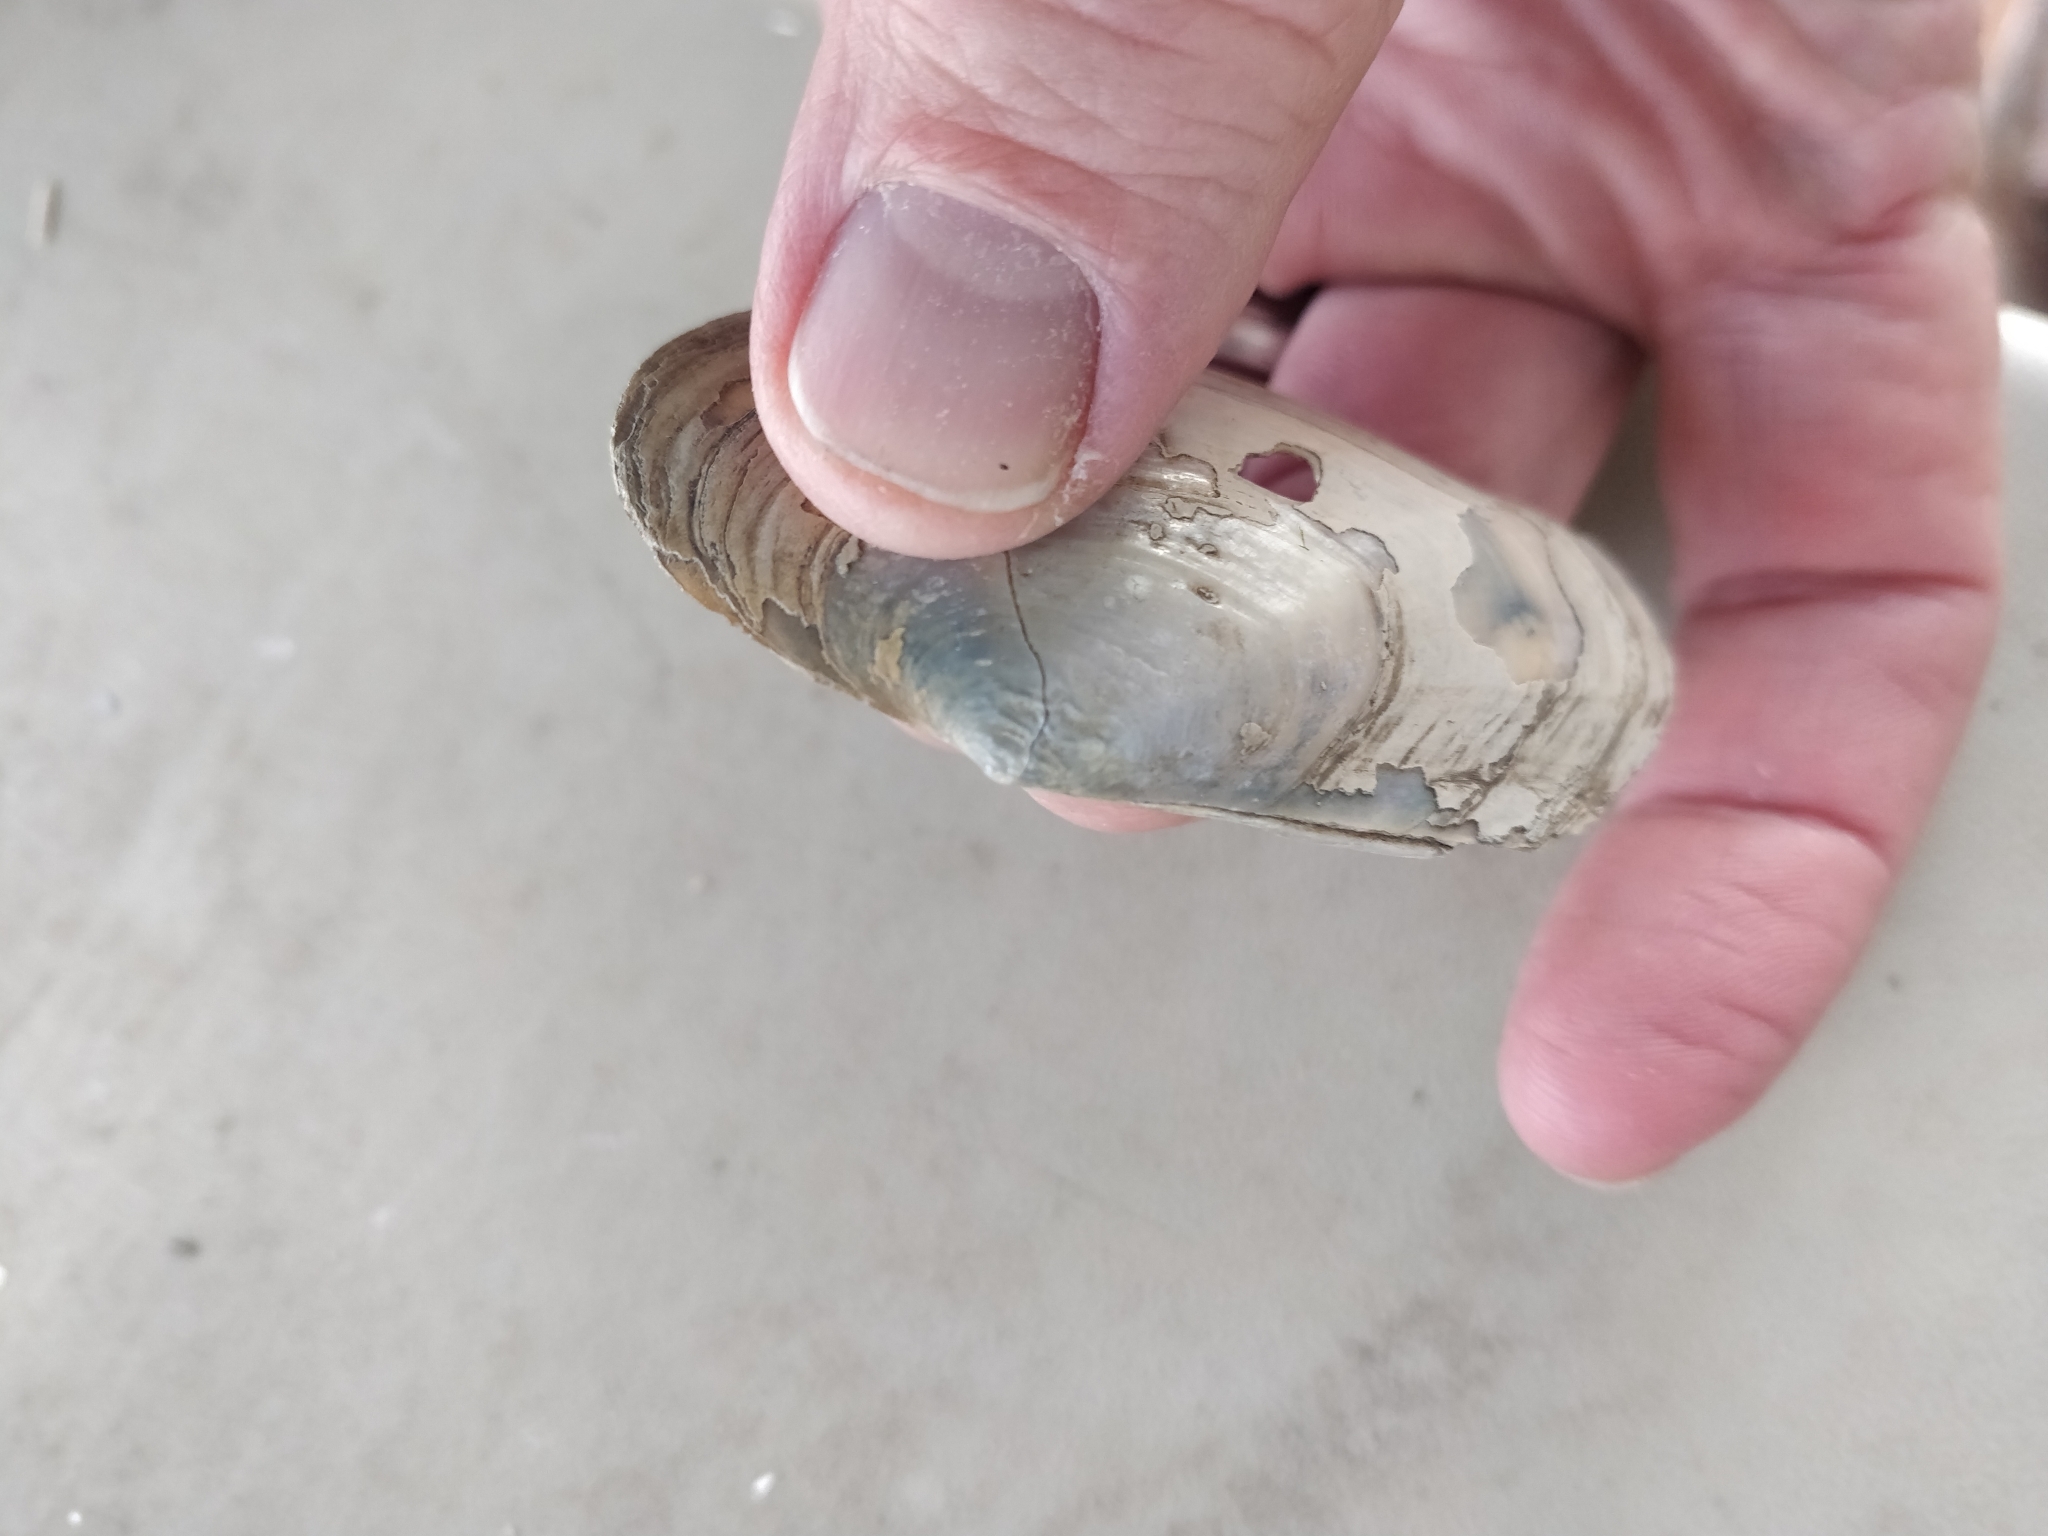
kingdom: Animalia
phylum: Mollusca
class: Bivalvia
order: Unionida
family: Unionidae
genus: Lasmigona
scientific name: Lasmigona compressa
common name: Creek heelsplitter
